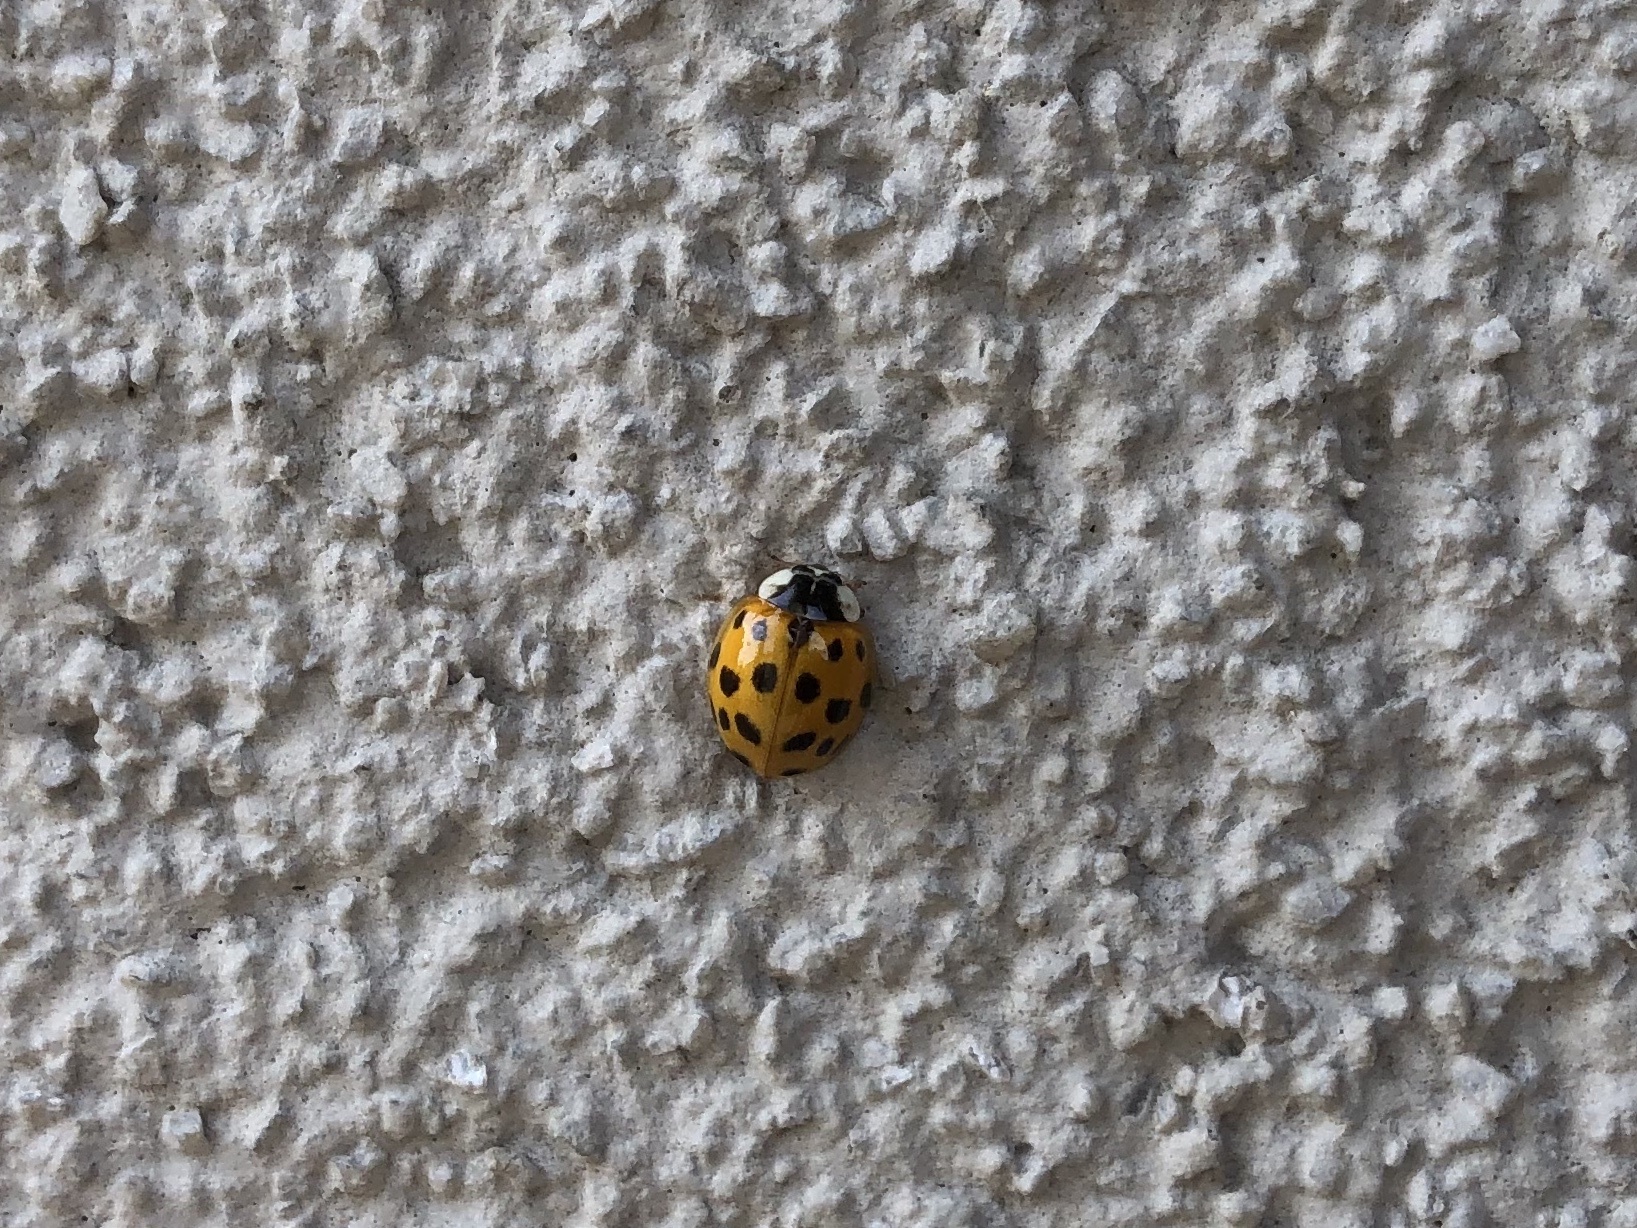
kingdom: Animalia
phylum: Arthropoda
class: Insecta
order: Coleoptera
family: Coccinellidae
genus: Harmonia
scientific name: Harmonia axyridis
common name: Harlequin ladybird
